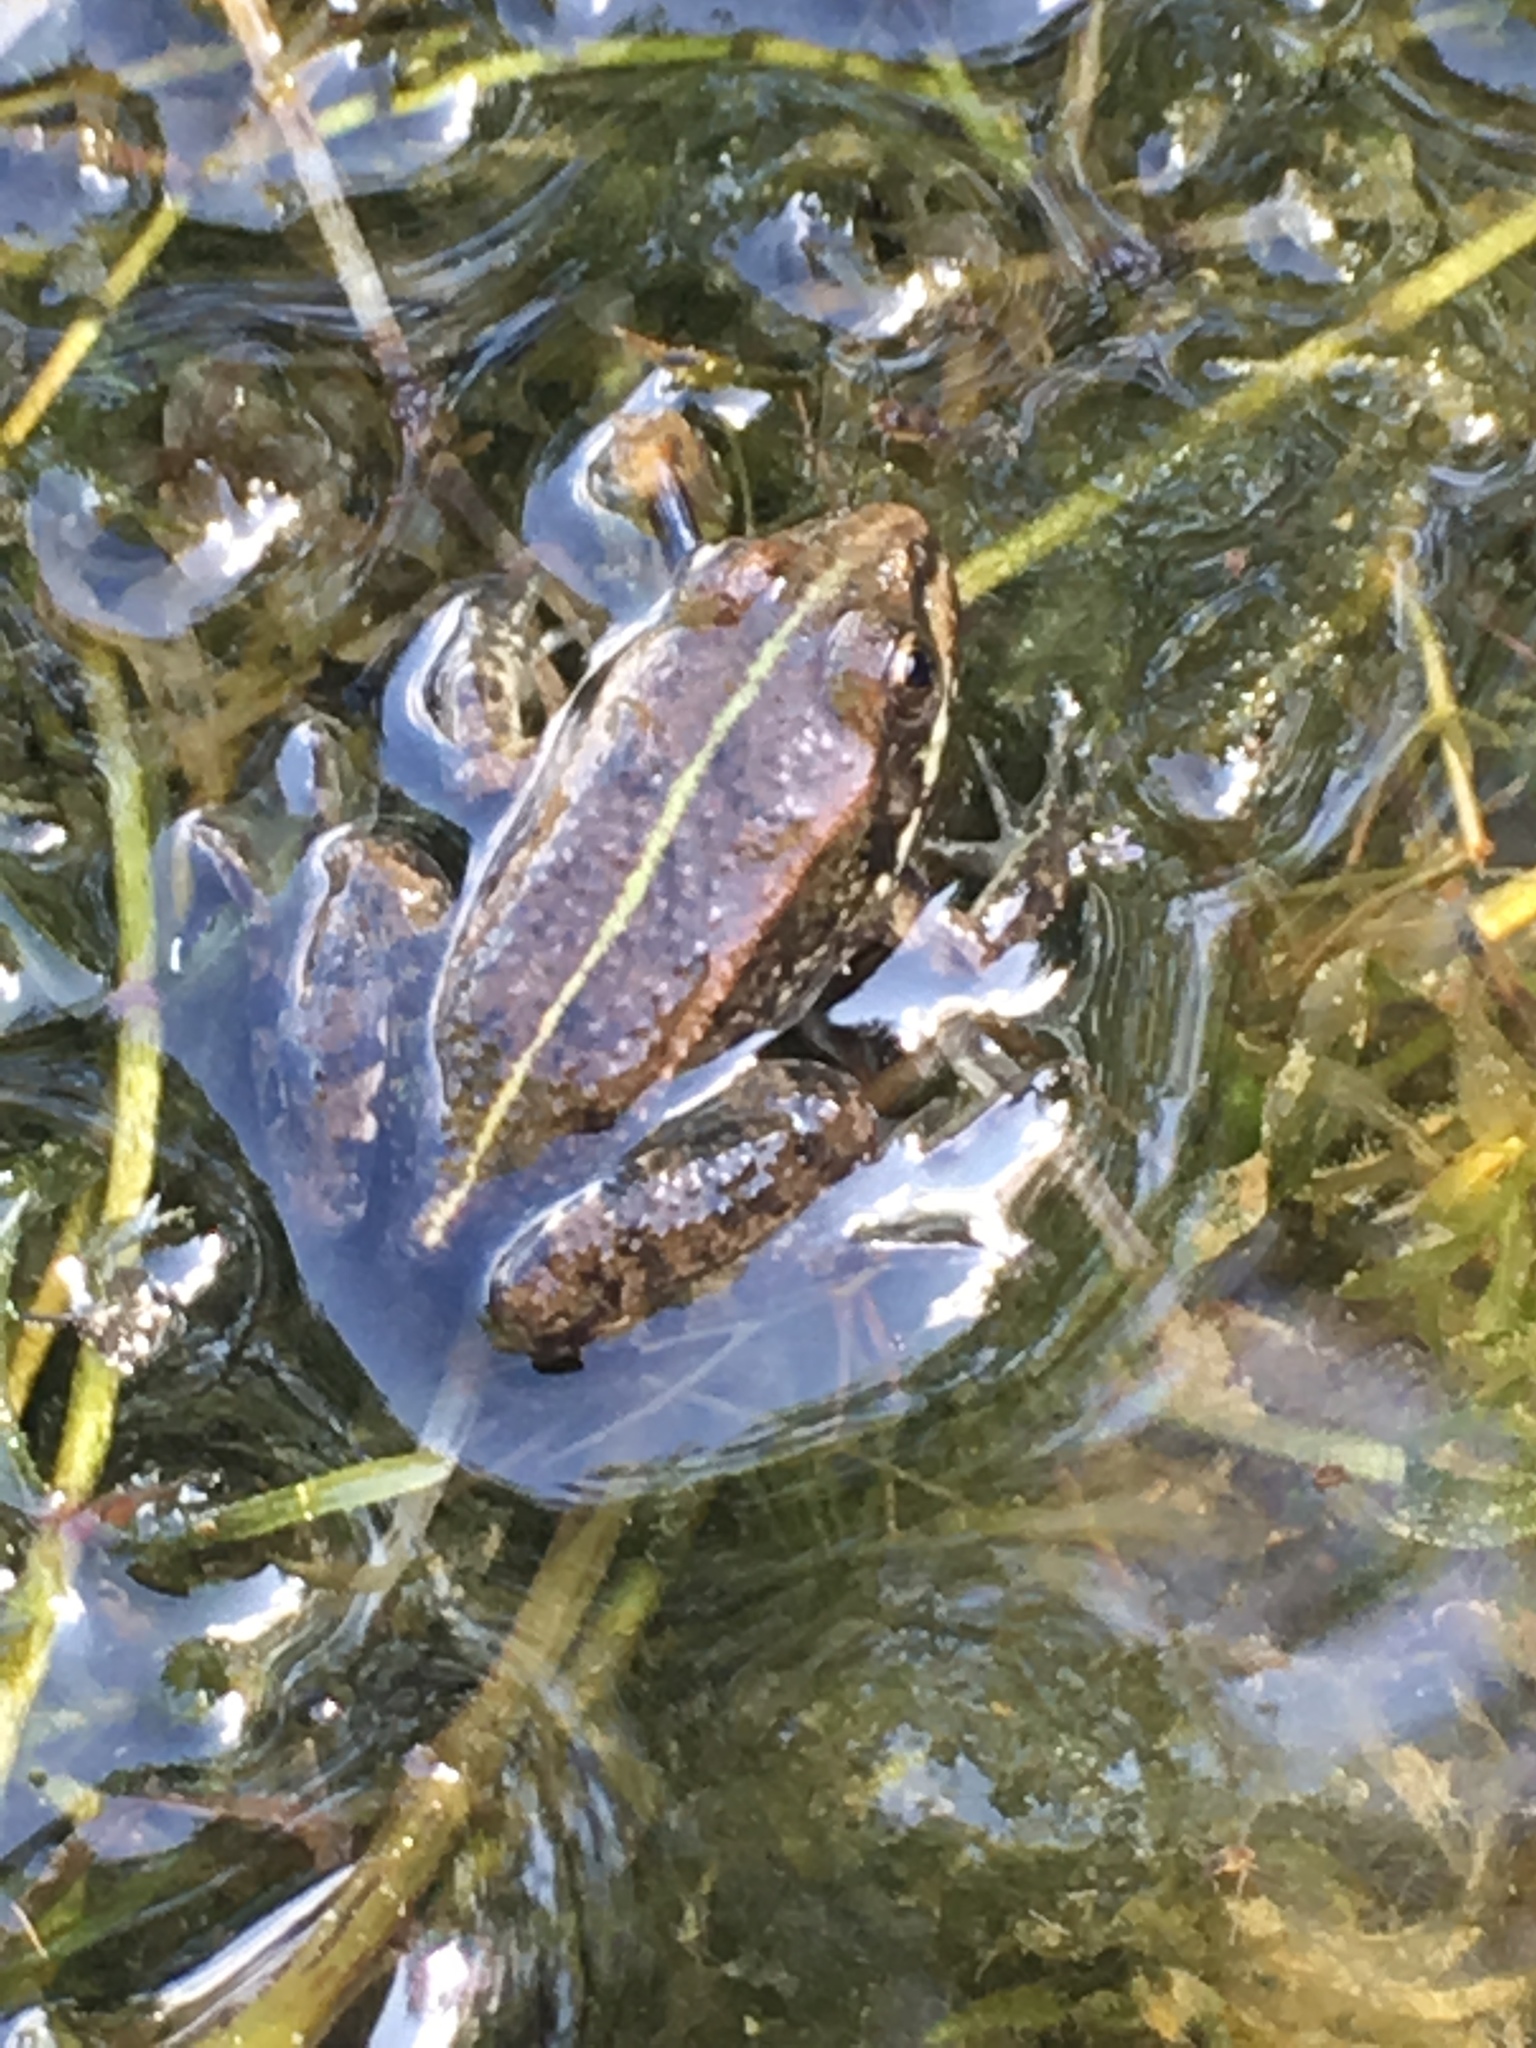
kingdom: Animalia
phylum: Chordata
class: Amphibia
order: Anura
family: Ranidae
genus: Pelophylax
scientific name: Pelophylax
